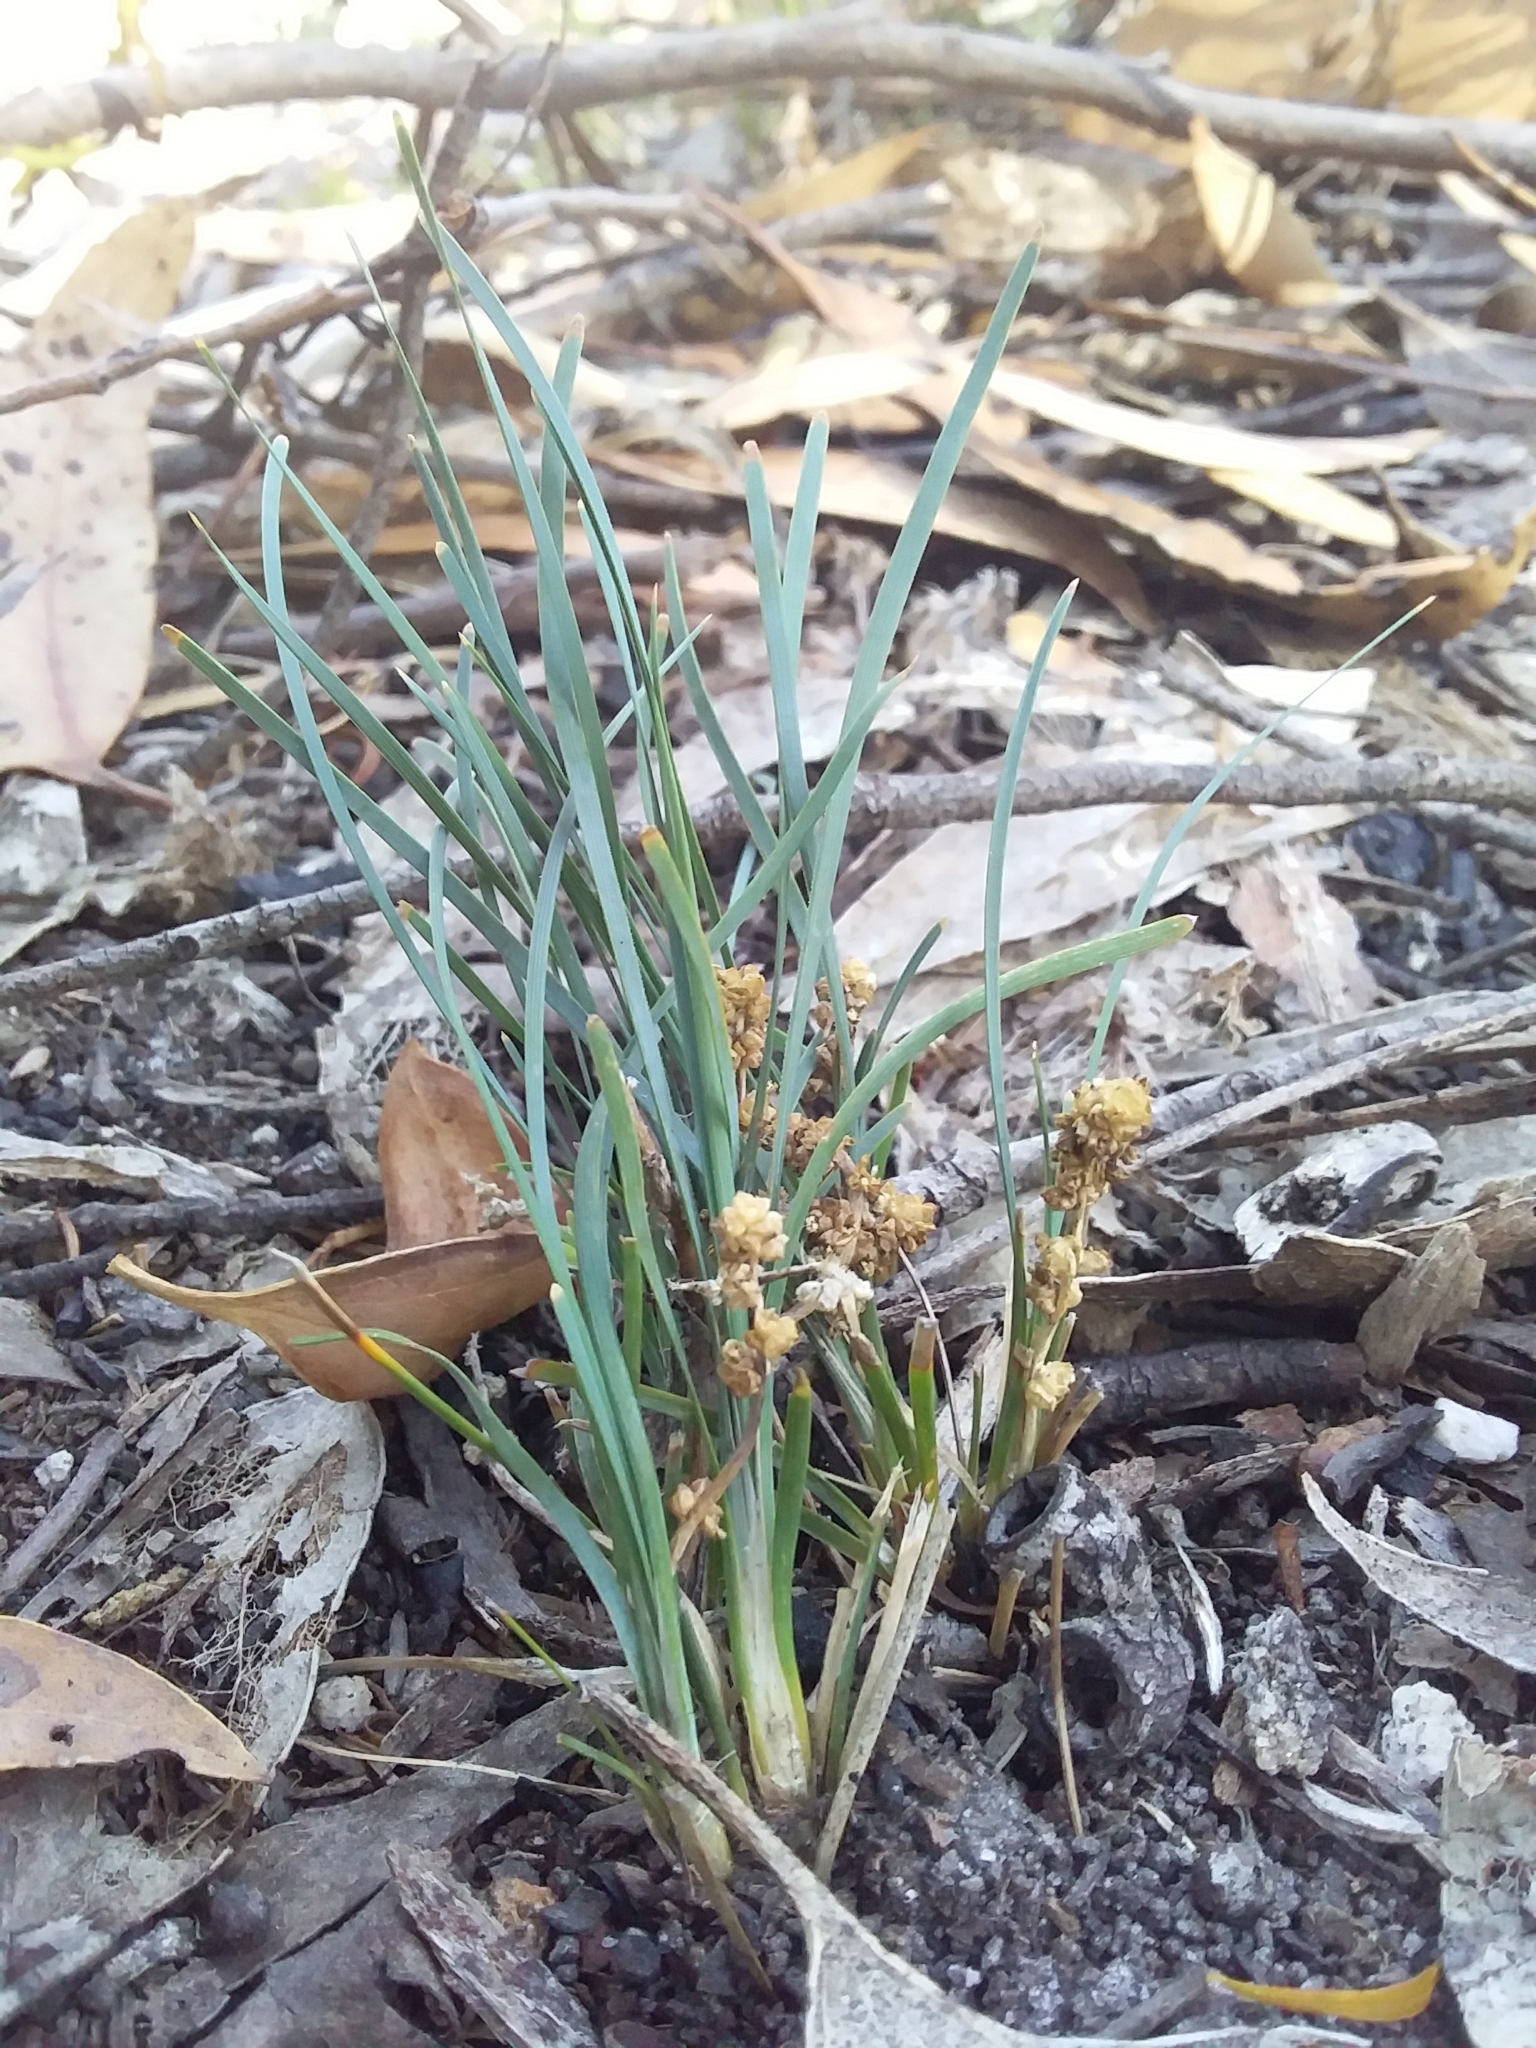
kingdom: Plantae
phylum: Tracheophyta
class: Liliopsida
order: Asparagales
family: Asparagaceae
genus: Lomandra
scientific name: Lomandra nana
